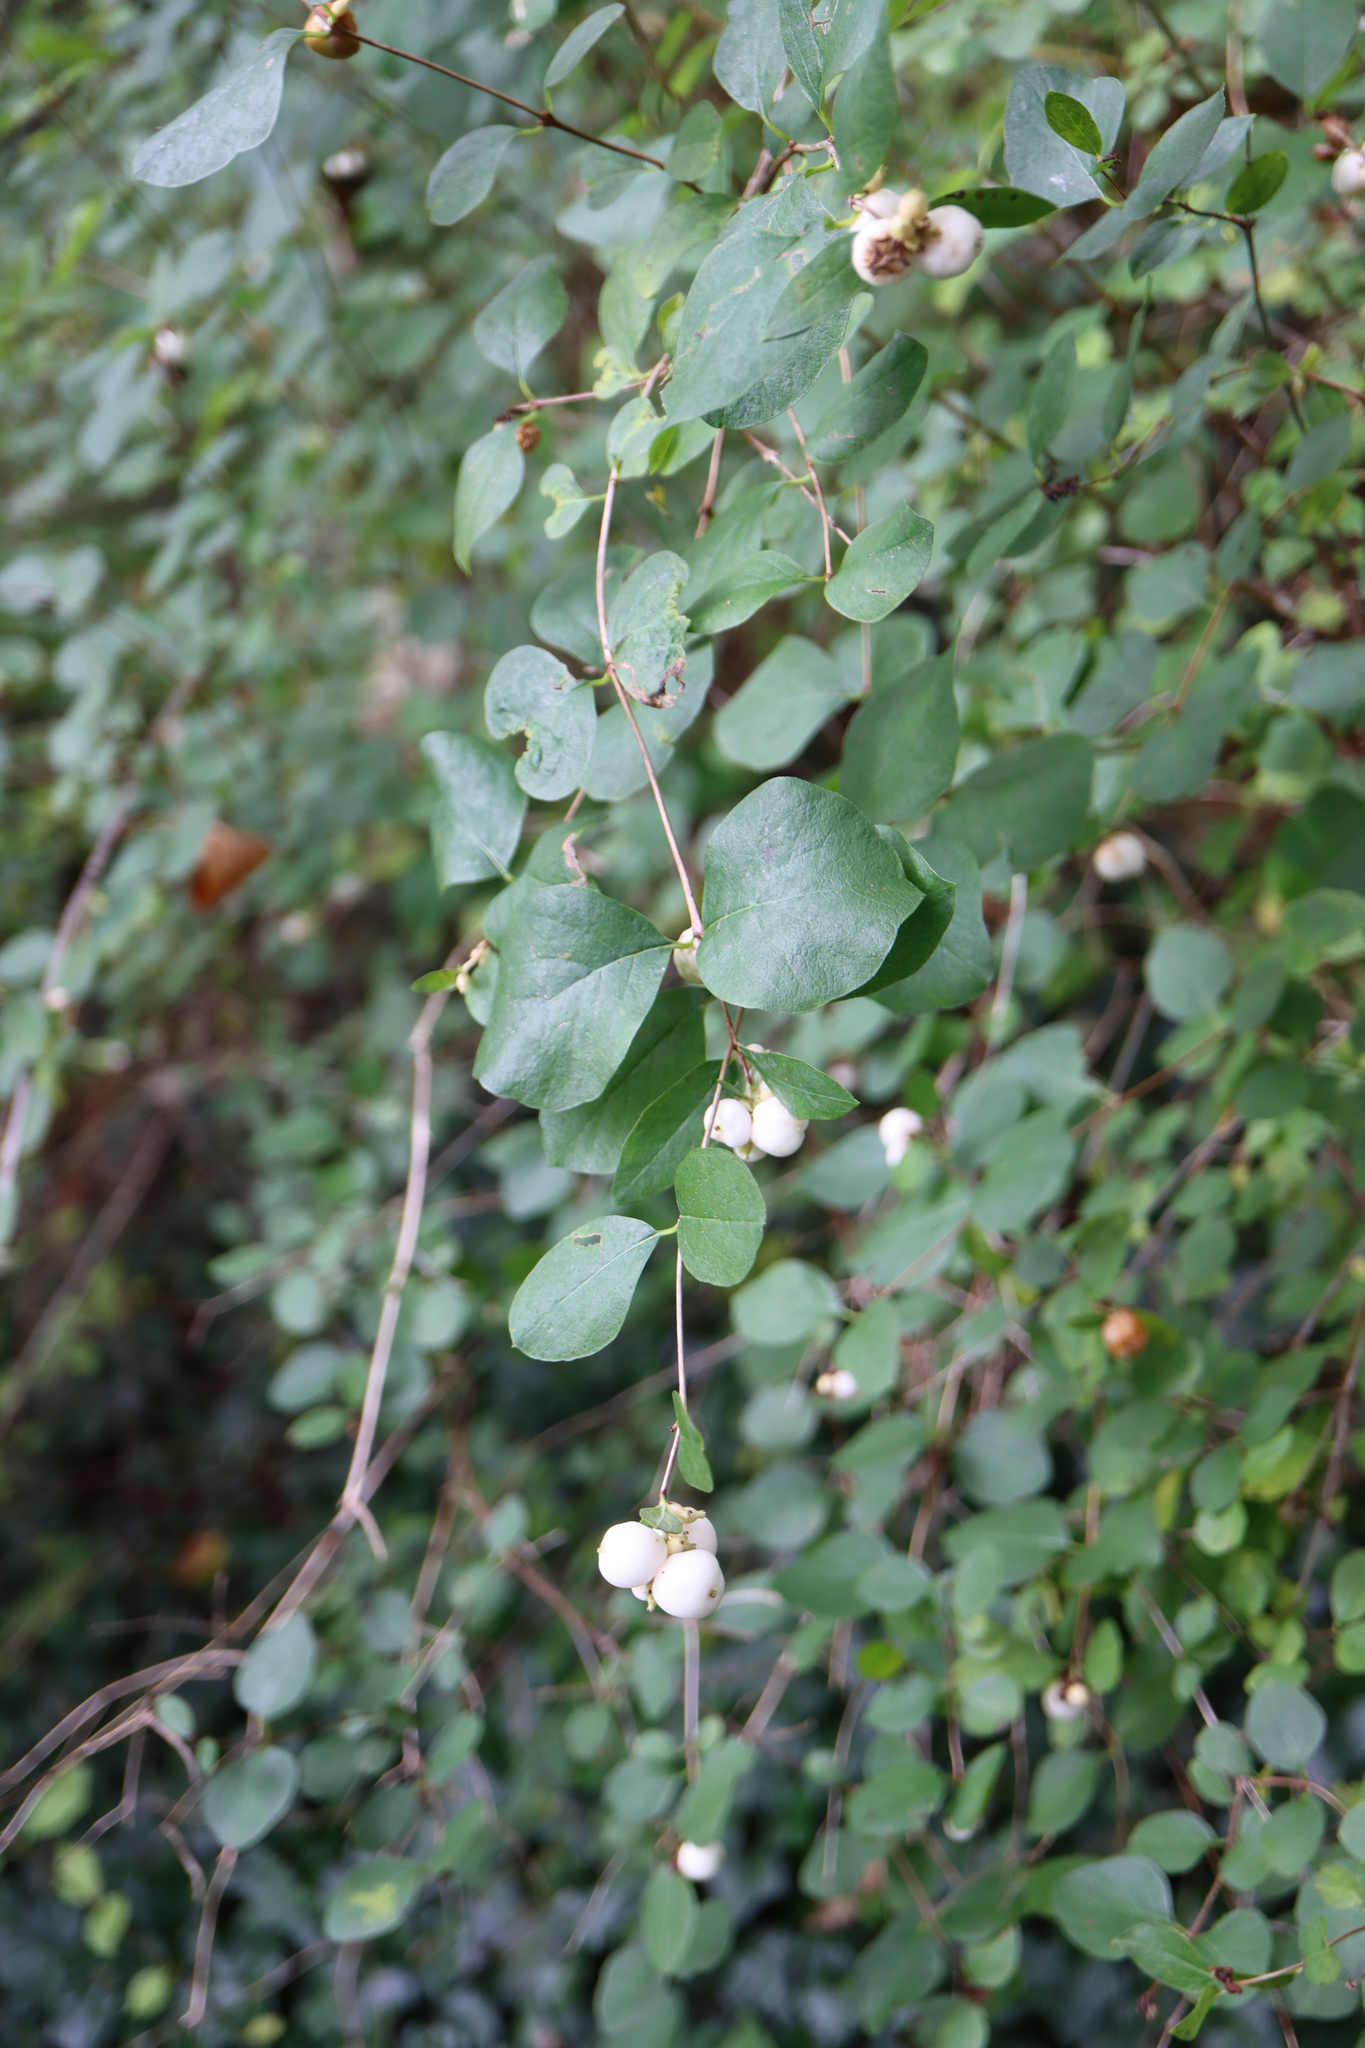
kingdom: Plantae
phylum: Tracheophyta
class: Magnoliopsida
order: Dipsacales
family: Caprifoliaceae
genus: Symphoricarpos
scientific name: Symphoricarpos albus
